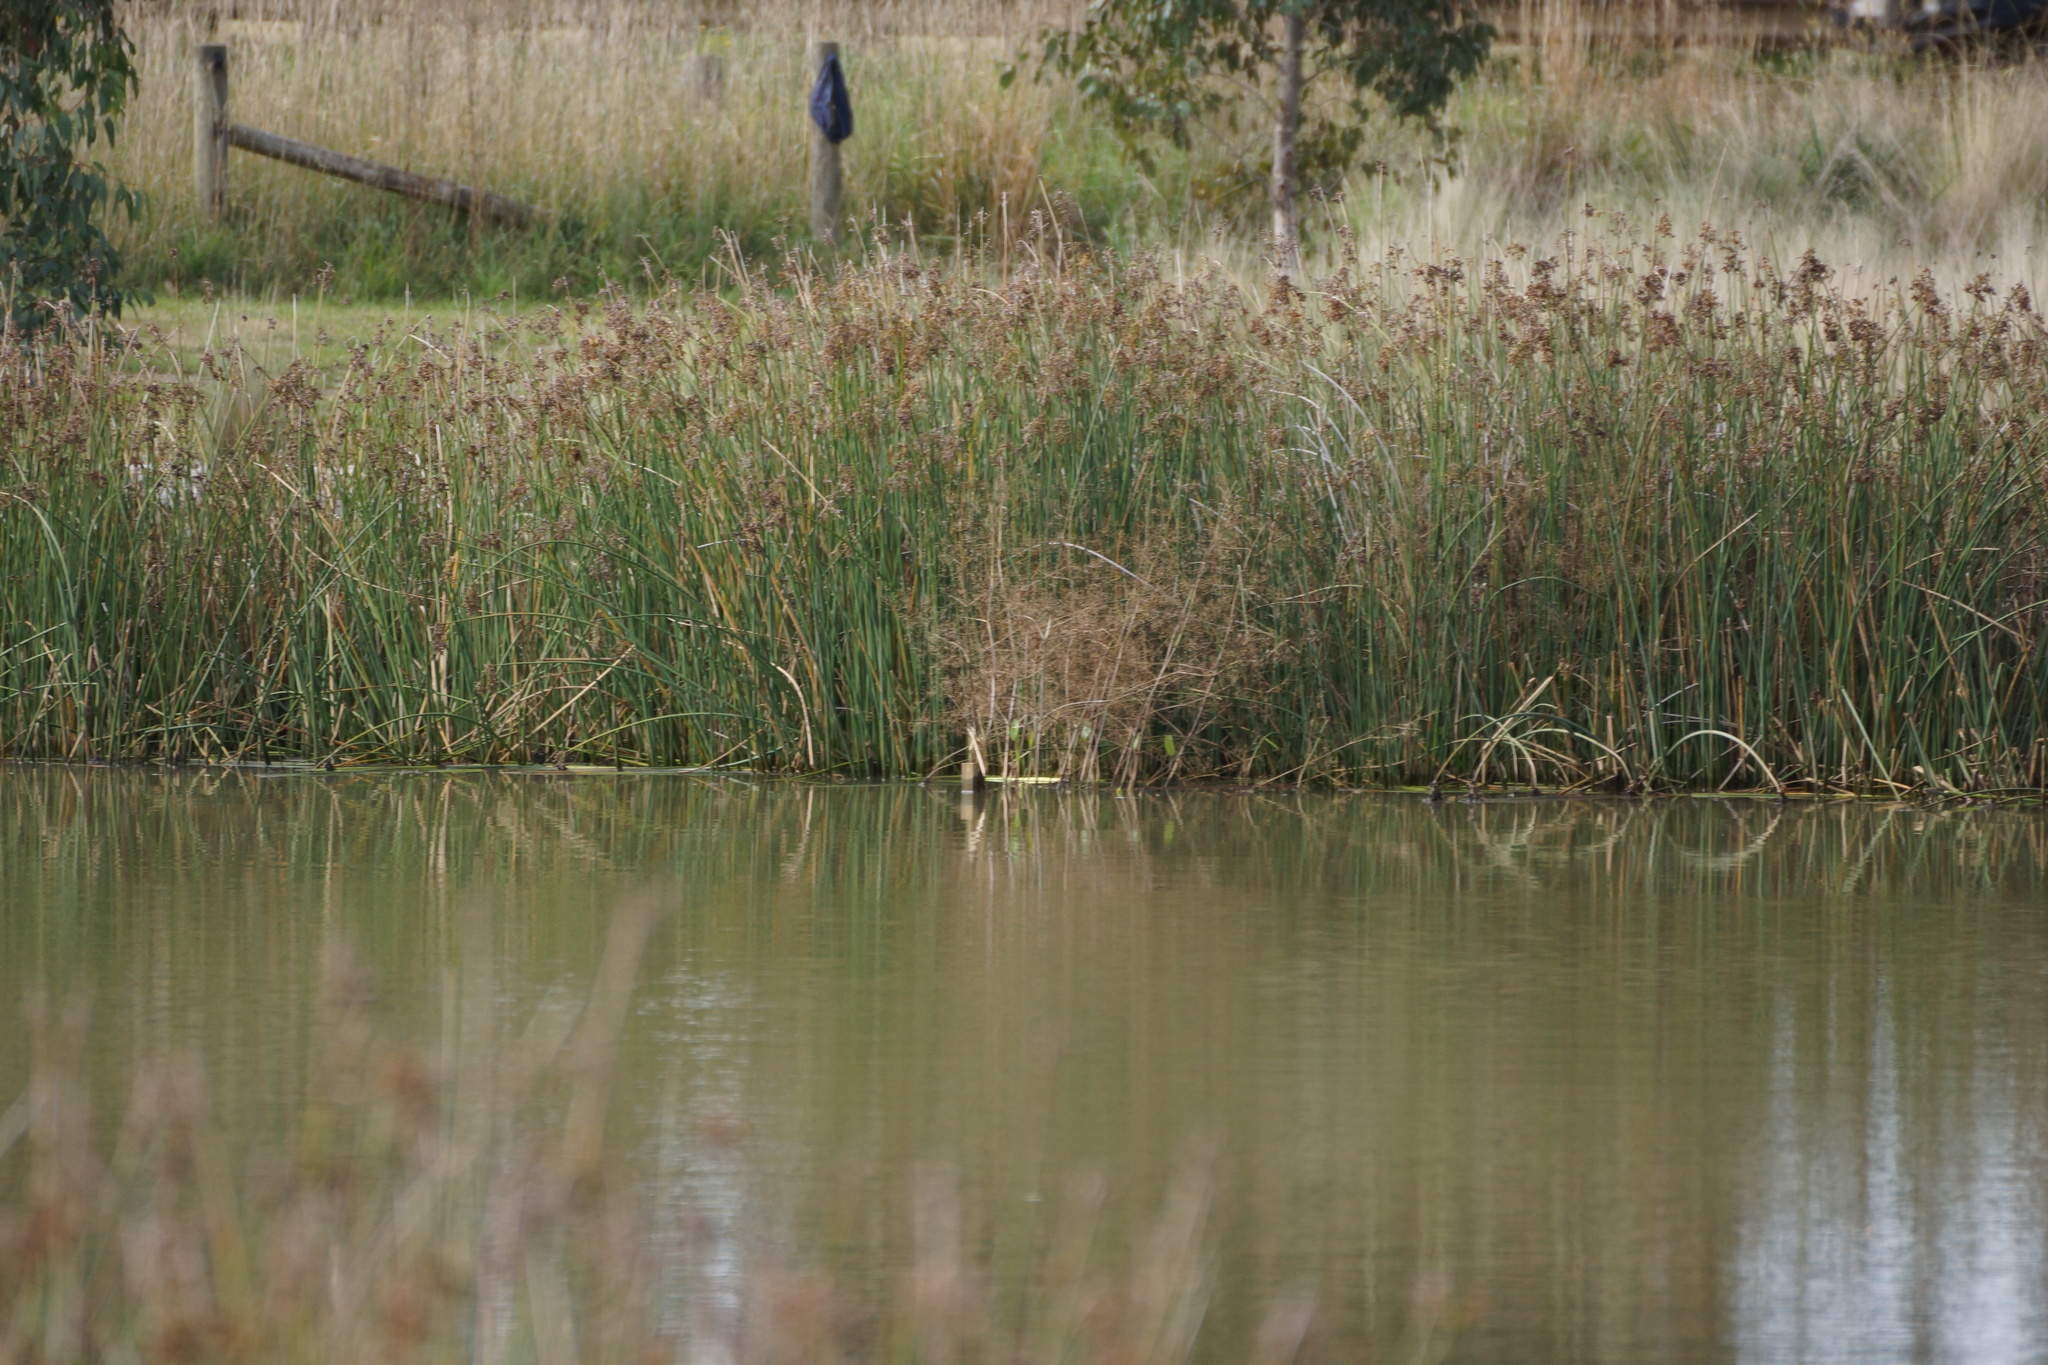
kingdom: Plantae
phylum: Tracheophyta
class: Liliopsida
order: Poales
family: Cyperaceae
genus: Schoenoplectus
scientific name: Schoenoplectus tabernaemontani
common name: Grey club-rush
